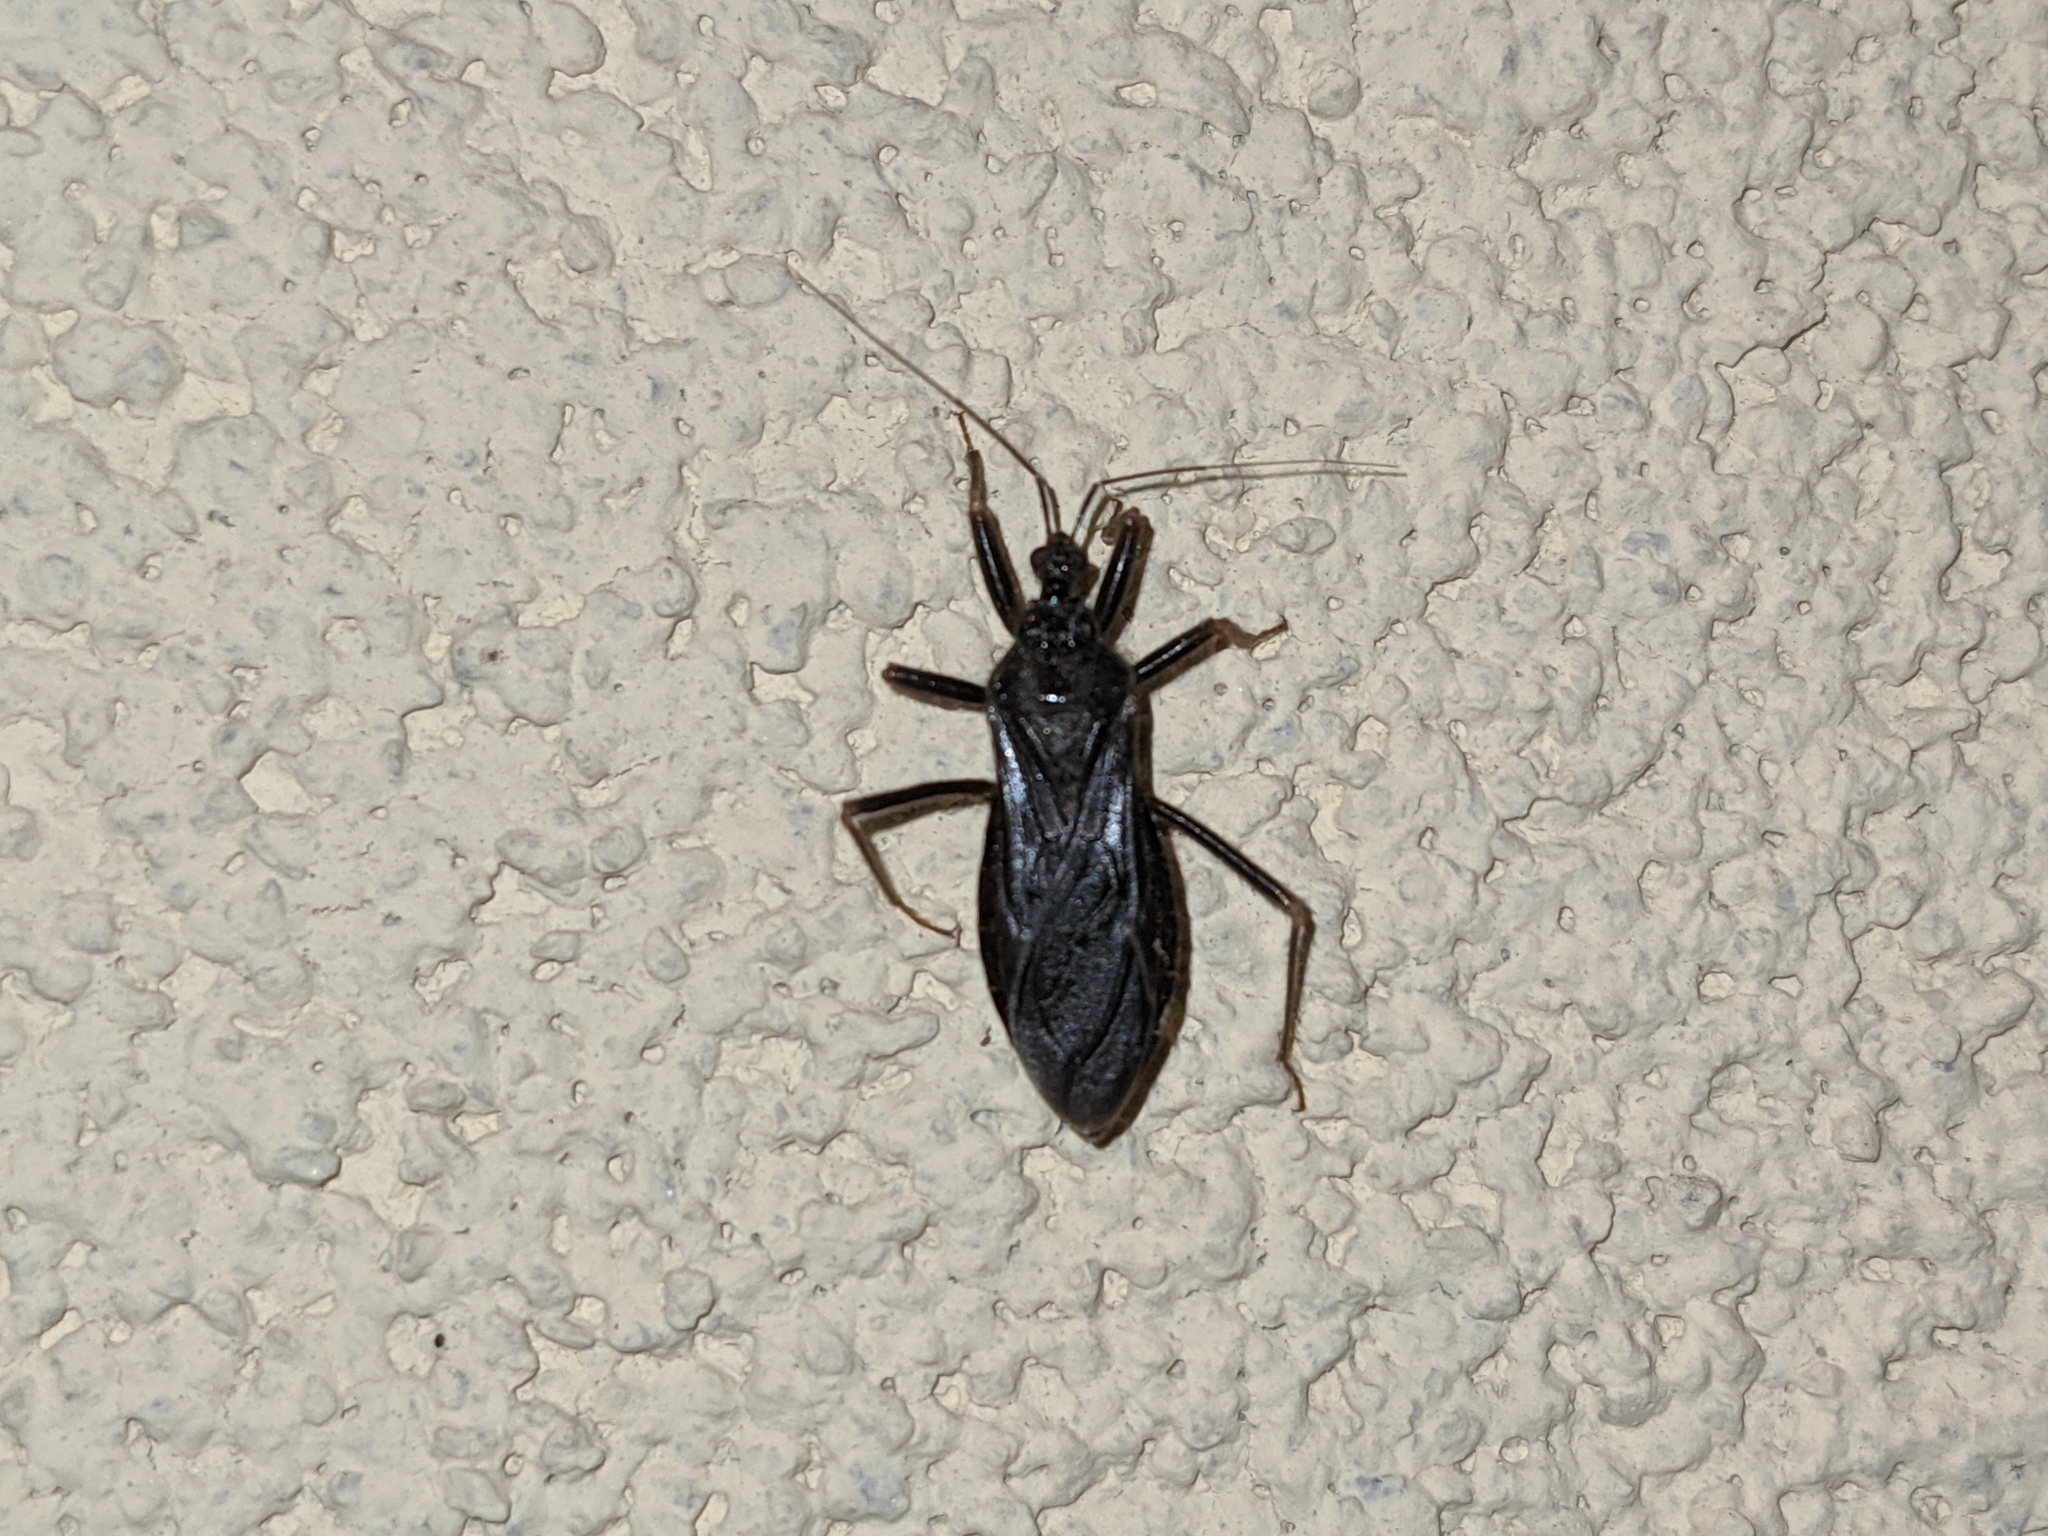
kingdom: Animalia
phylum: Arthropoda
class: Insecta
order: Hemiptera
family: Reduviidae
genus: Reduvius
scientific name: Reduvius personatus
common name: Masked hunter
